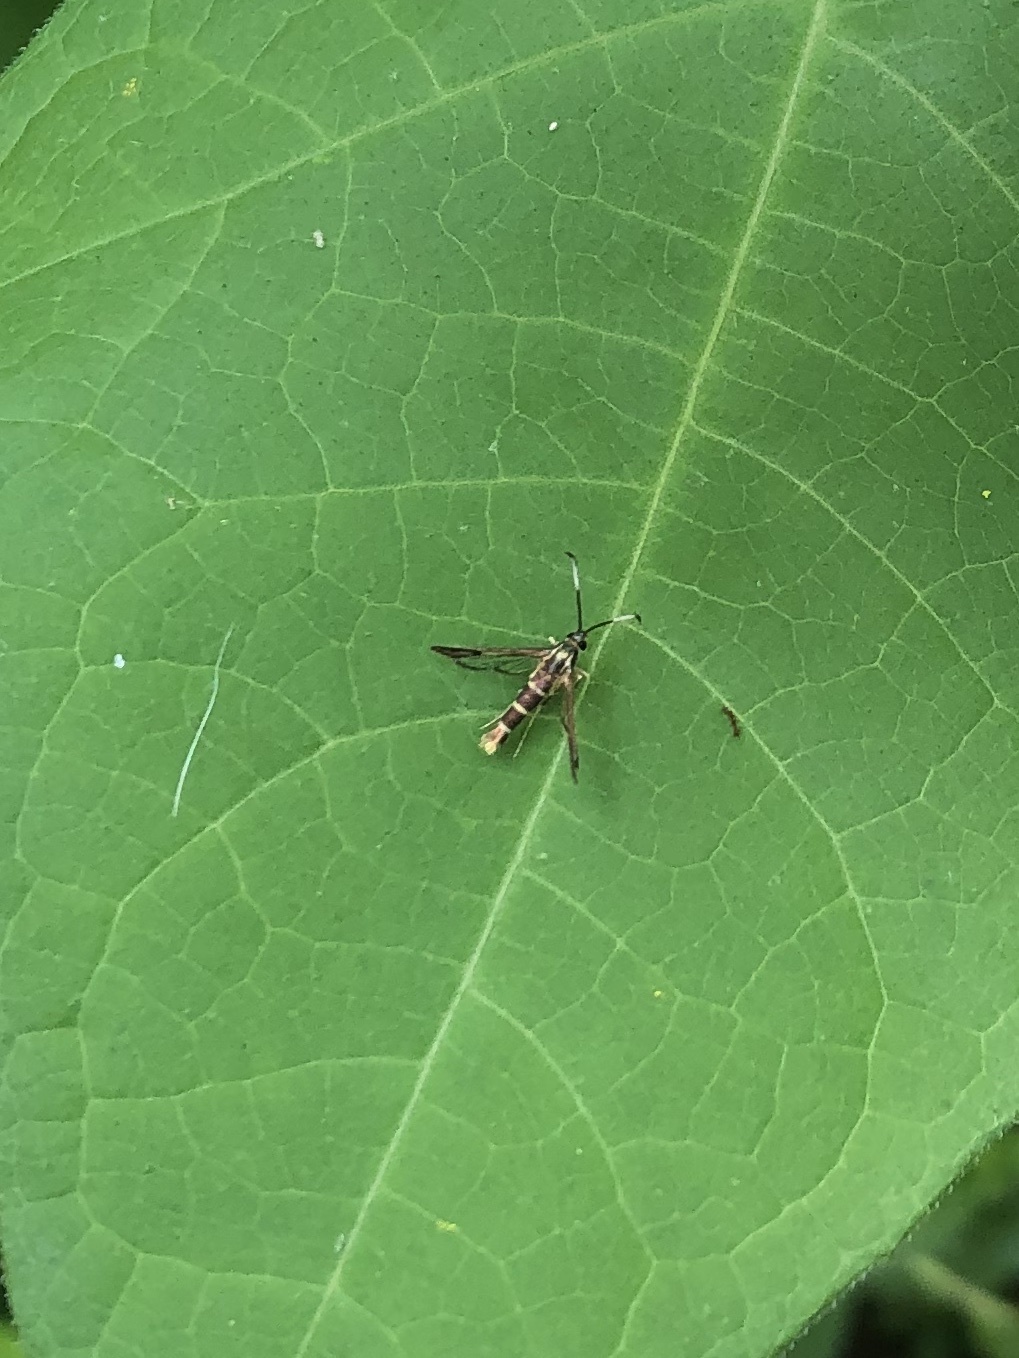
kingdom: Animalia
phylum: Arthropoda
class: Insecta
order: Lepidoptera
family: Sesiidae
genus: Carmenta
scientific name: Carmenta bassiformis
